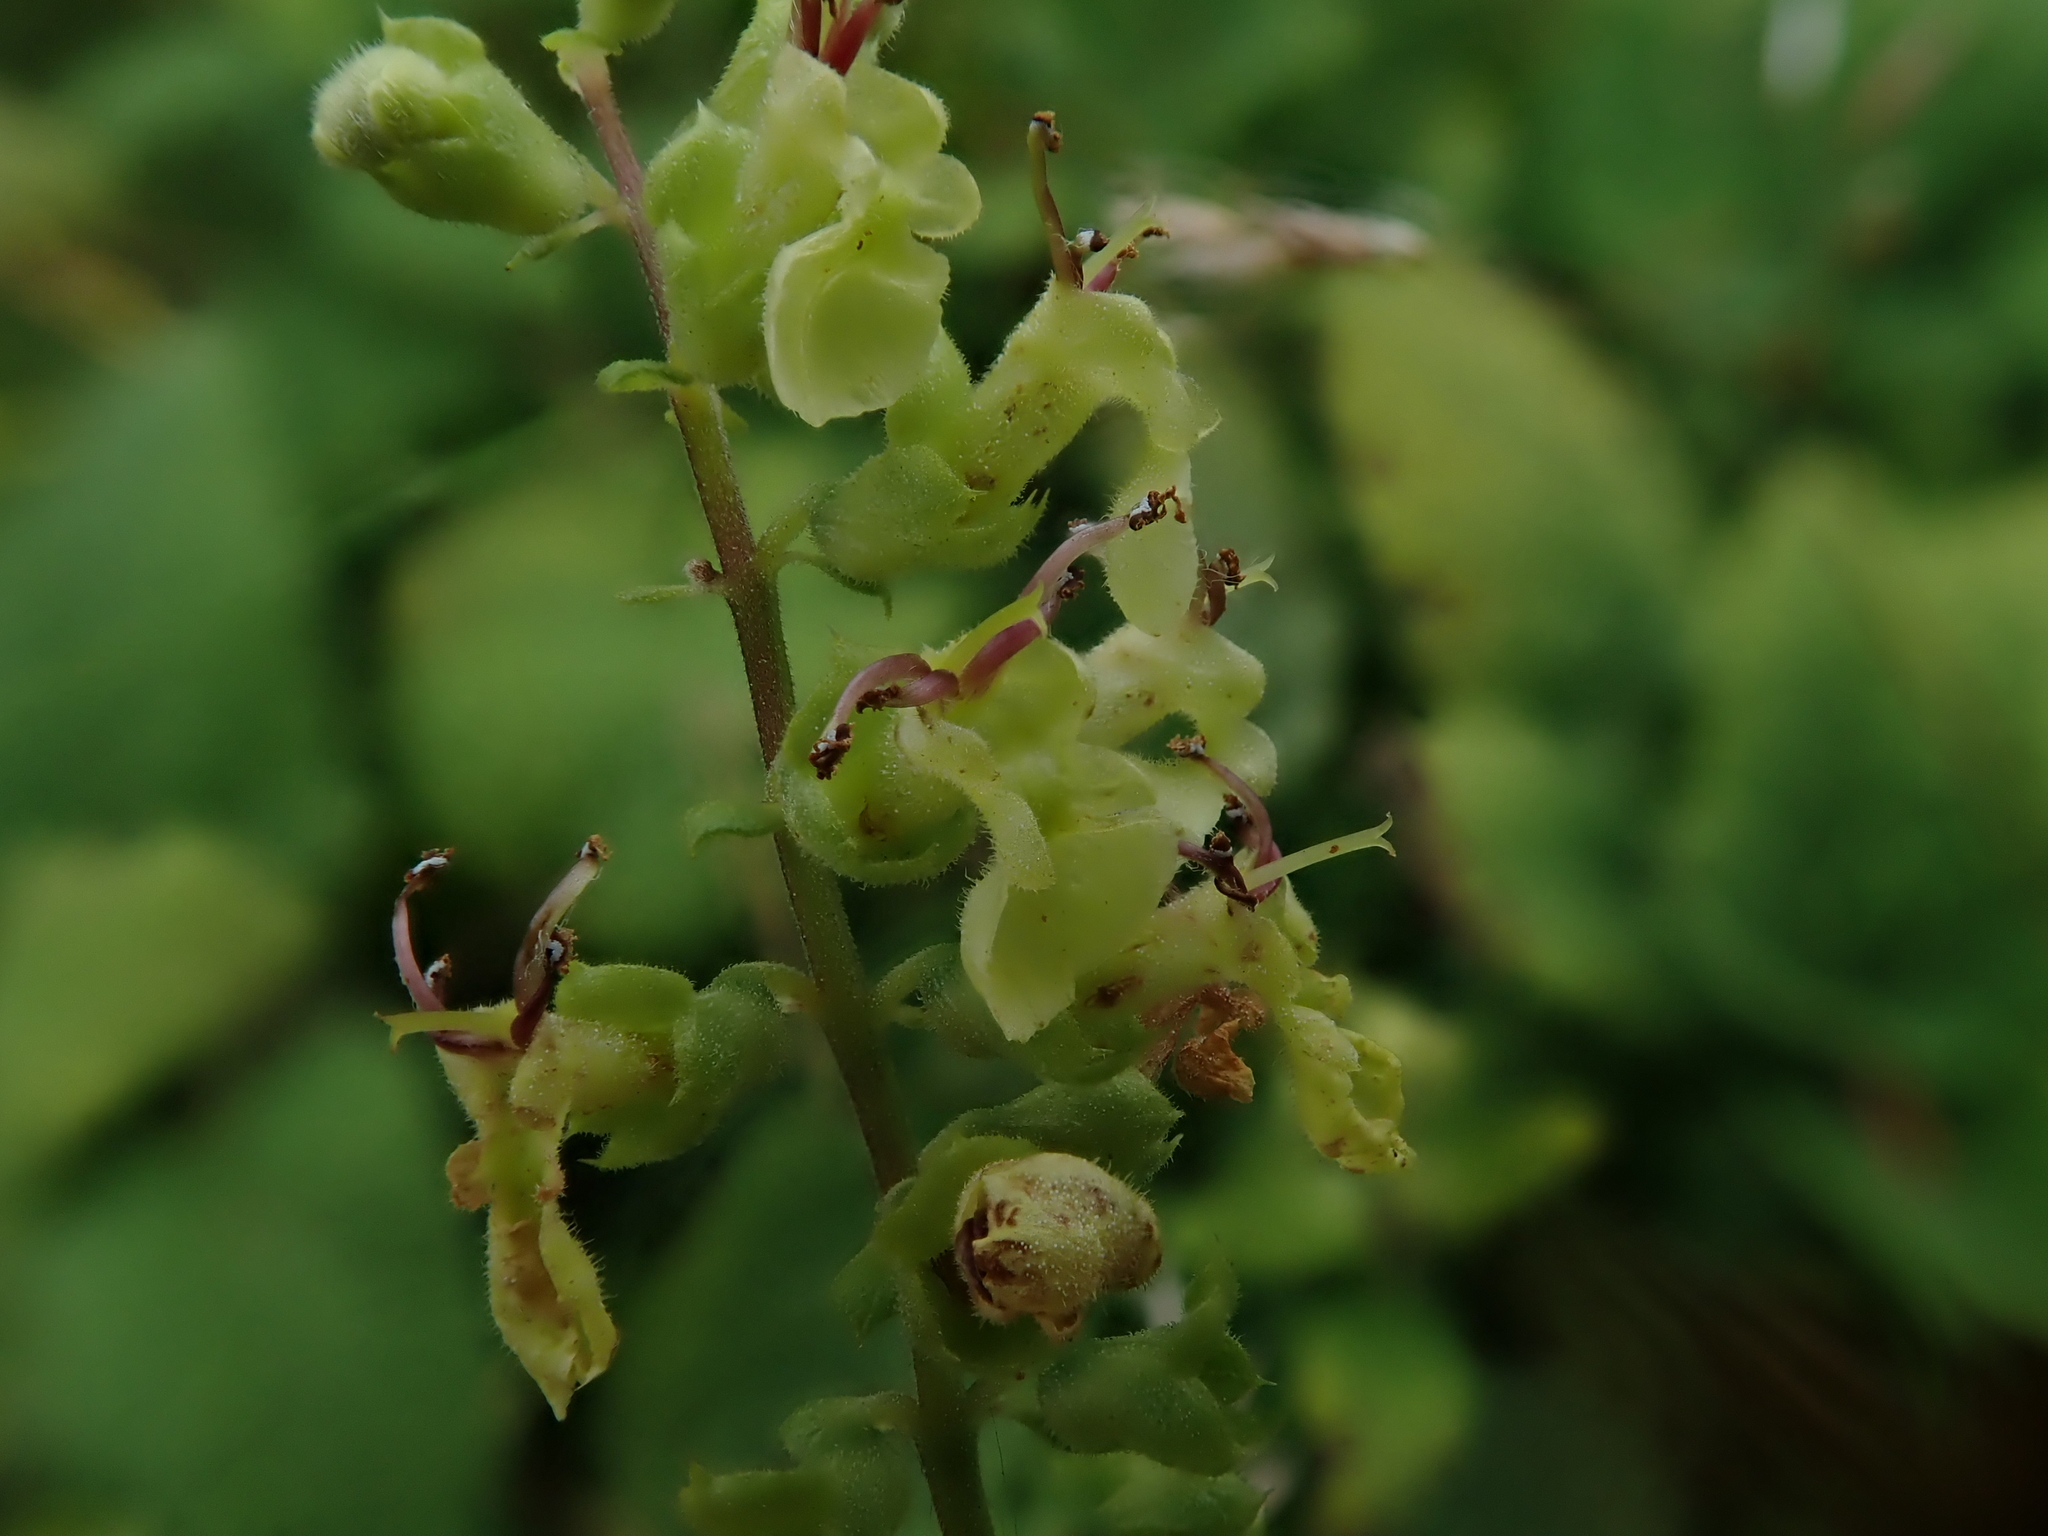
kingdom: Plantae
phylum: Tracheophyta
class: Magnoliopsida
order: Lamiales
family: Lamiaceae
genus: Teucrium
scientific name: Teucrium scorodonia
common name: Woodland germander
